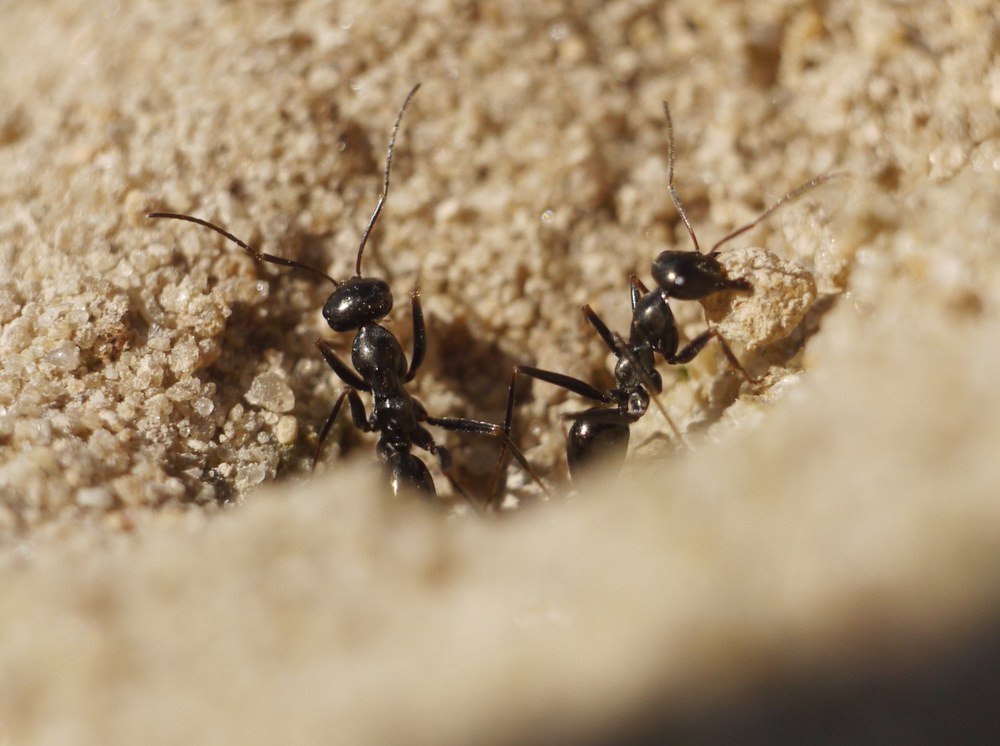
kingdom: Animalia
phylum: Arthropoda
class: Insecta
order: Hymenoptera
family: Formicidae
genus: Cataglyphis
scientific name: Cataglyphis aenescens
